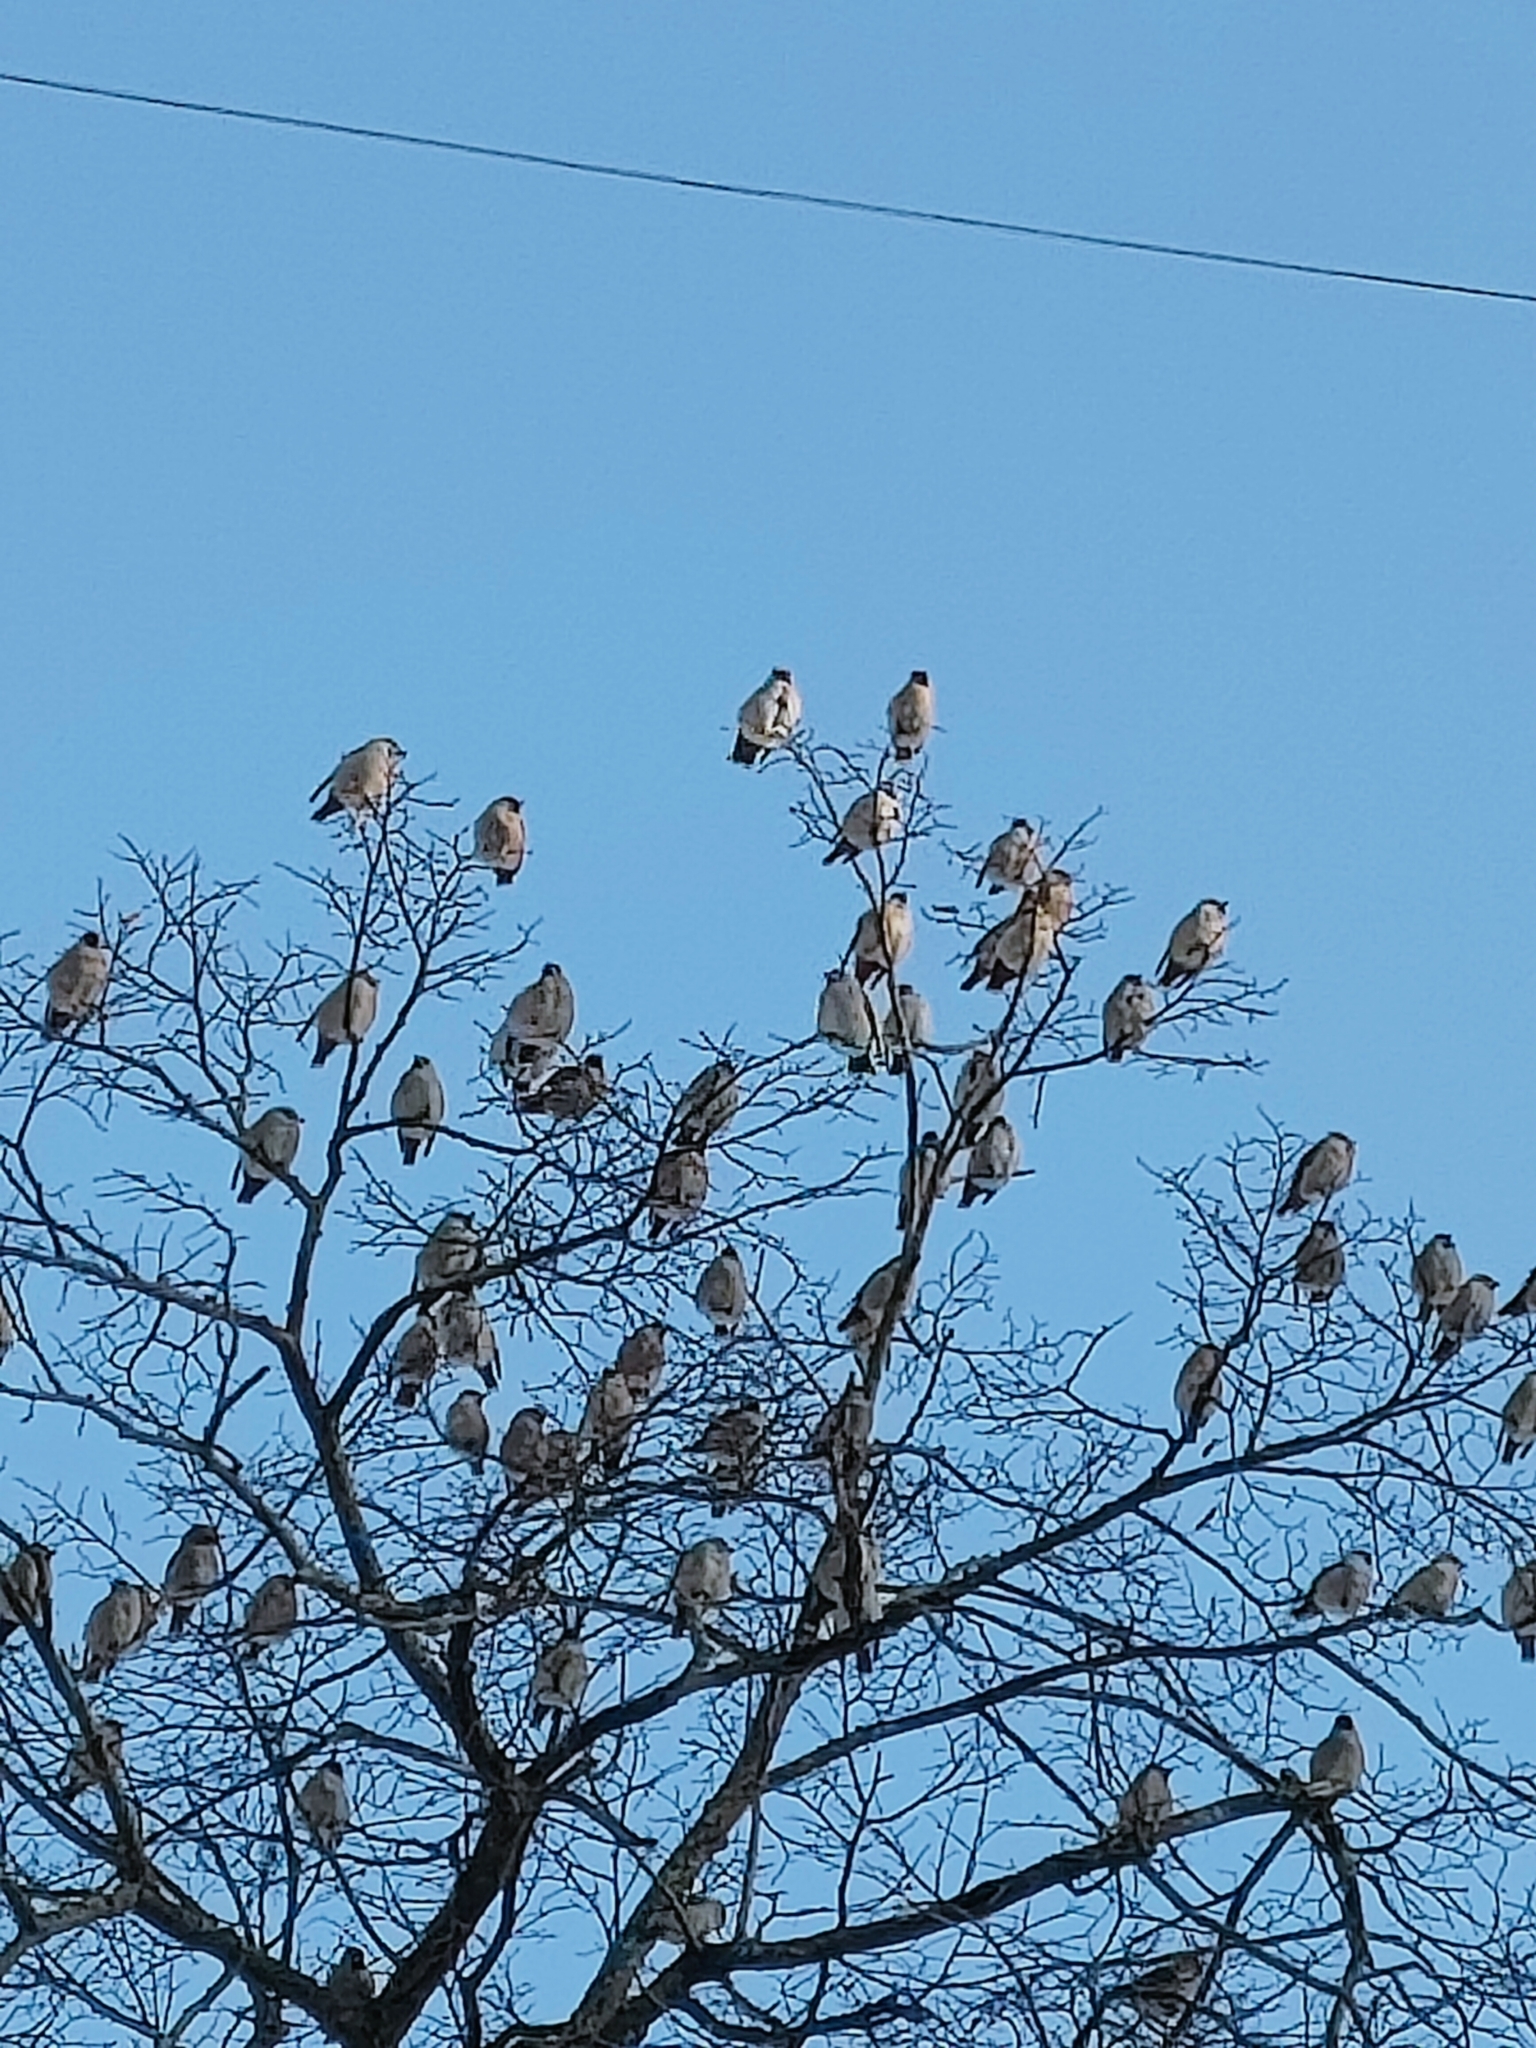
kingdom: Animalia
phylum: Chordata
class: Aves
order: Passeriformes
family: Bombycillidae
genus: Bombycilla
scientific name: Bombycilla garrulus
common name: Bohemian waxwing
